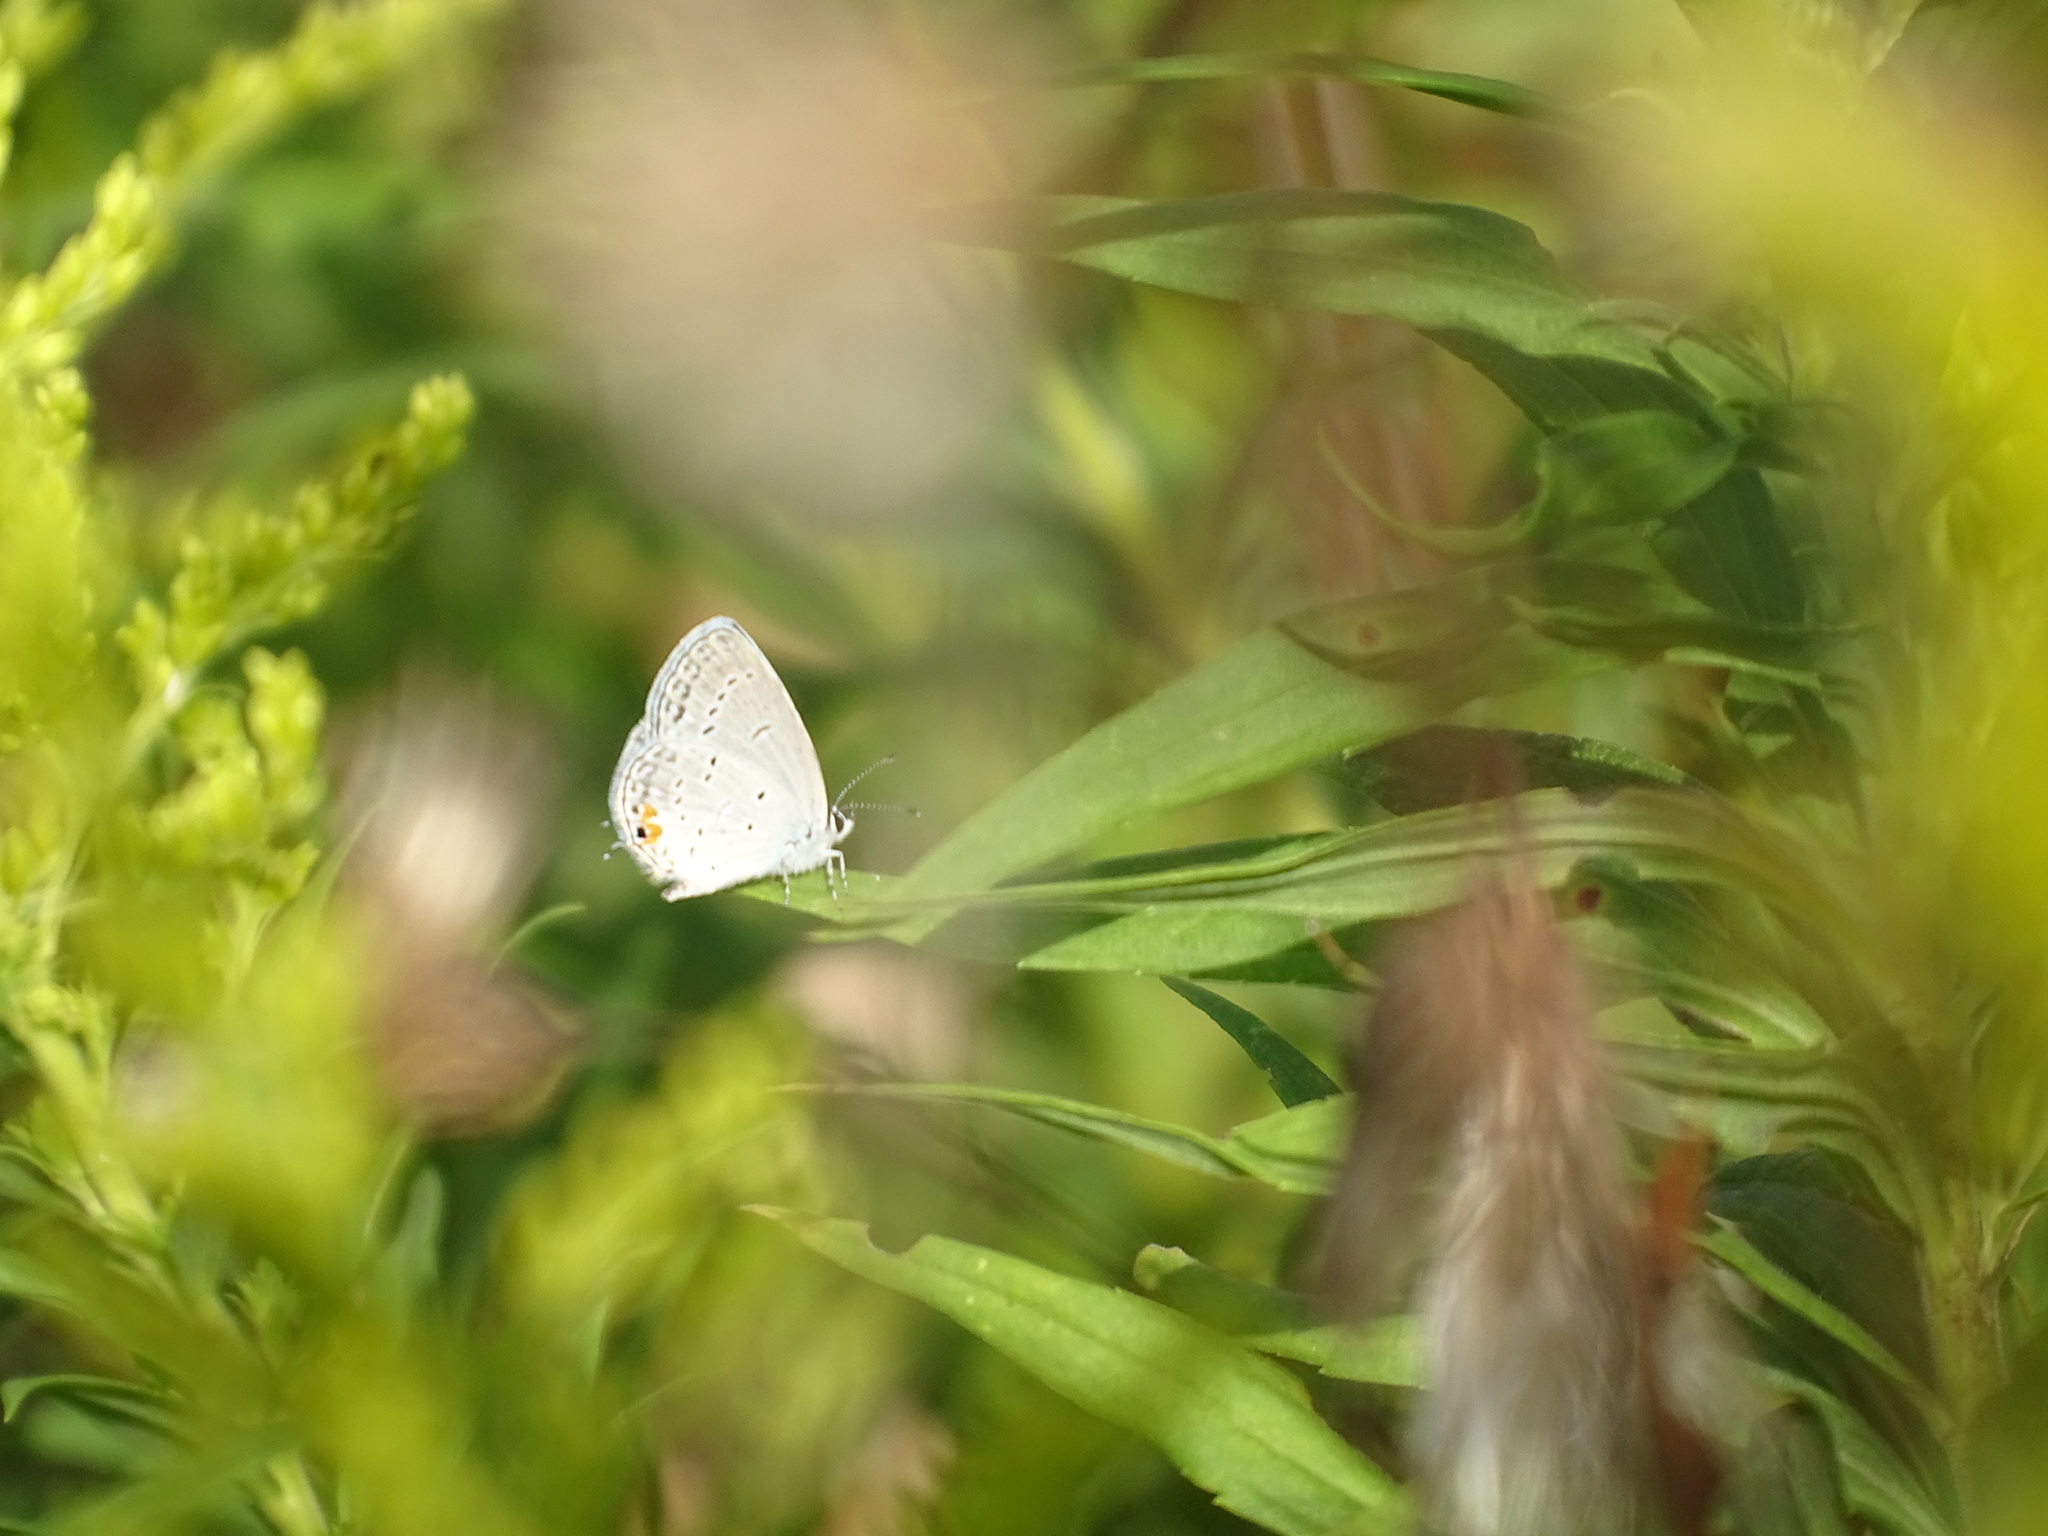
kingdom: Animalia
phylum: Arthropoda
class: Insecta
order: Lepidoptera
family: Lycaenidae
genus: Elkalyce
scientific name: Elkalyce comyntas
